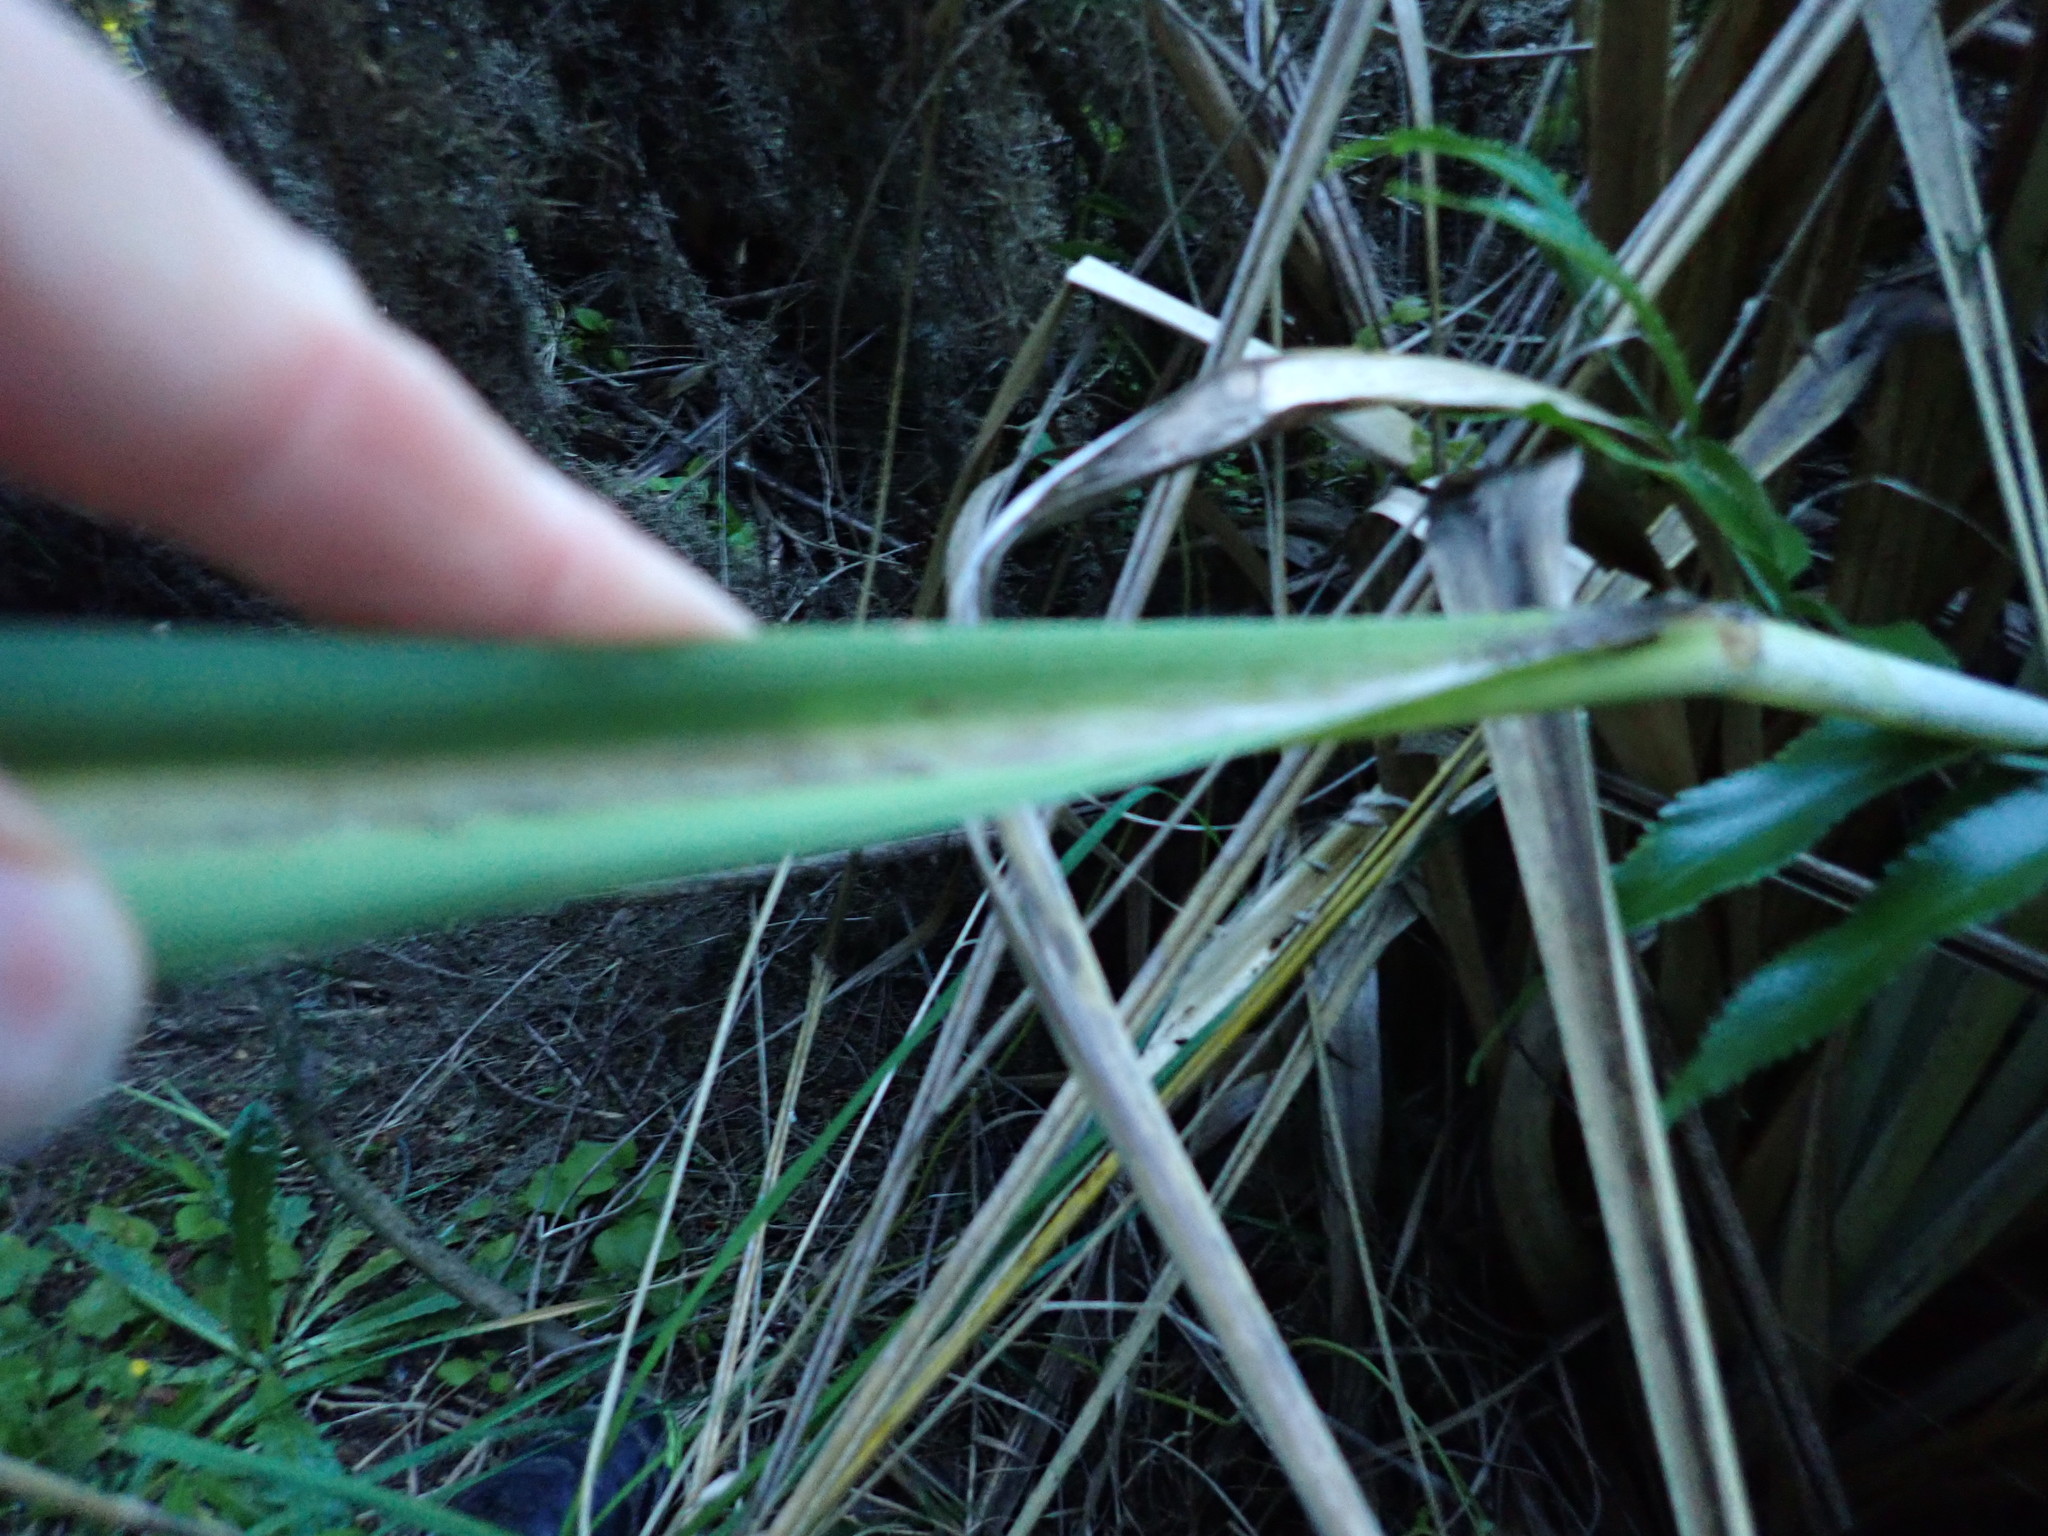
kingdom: Plantae
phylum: Tracheophyta
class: Liliopsida
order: Poales
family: Poaceae
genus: Austroderia
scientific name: Austroderia toetoe
